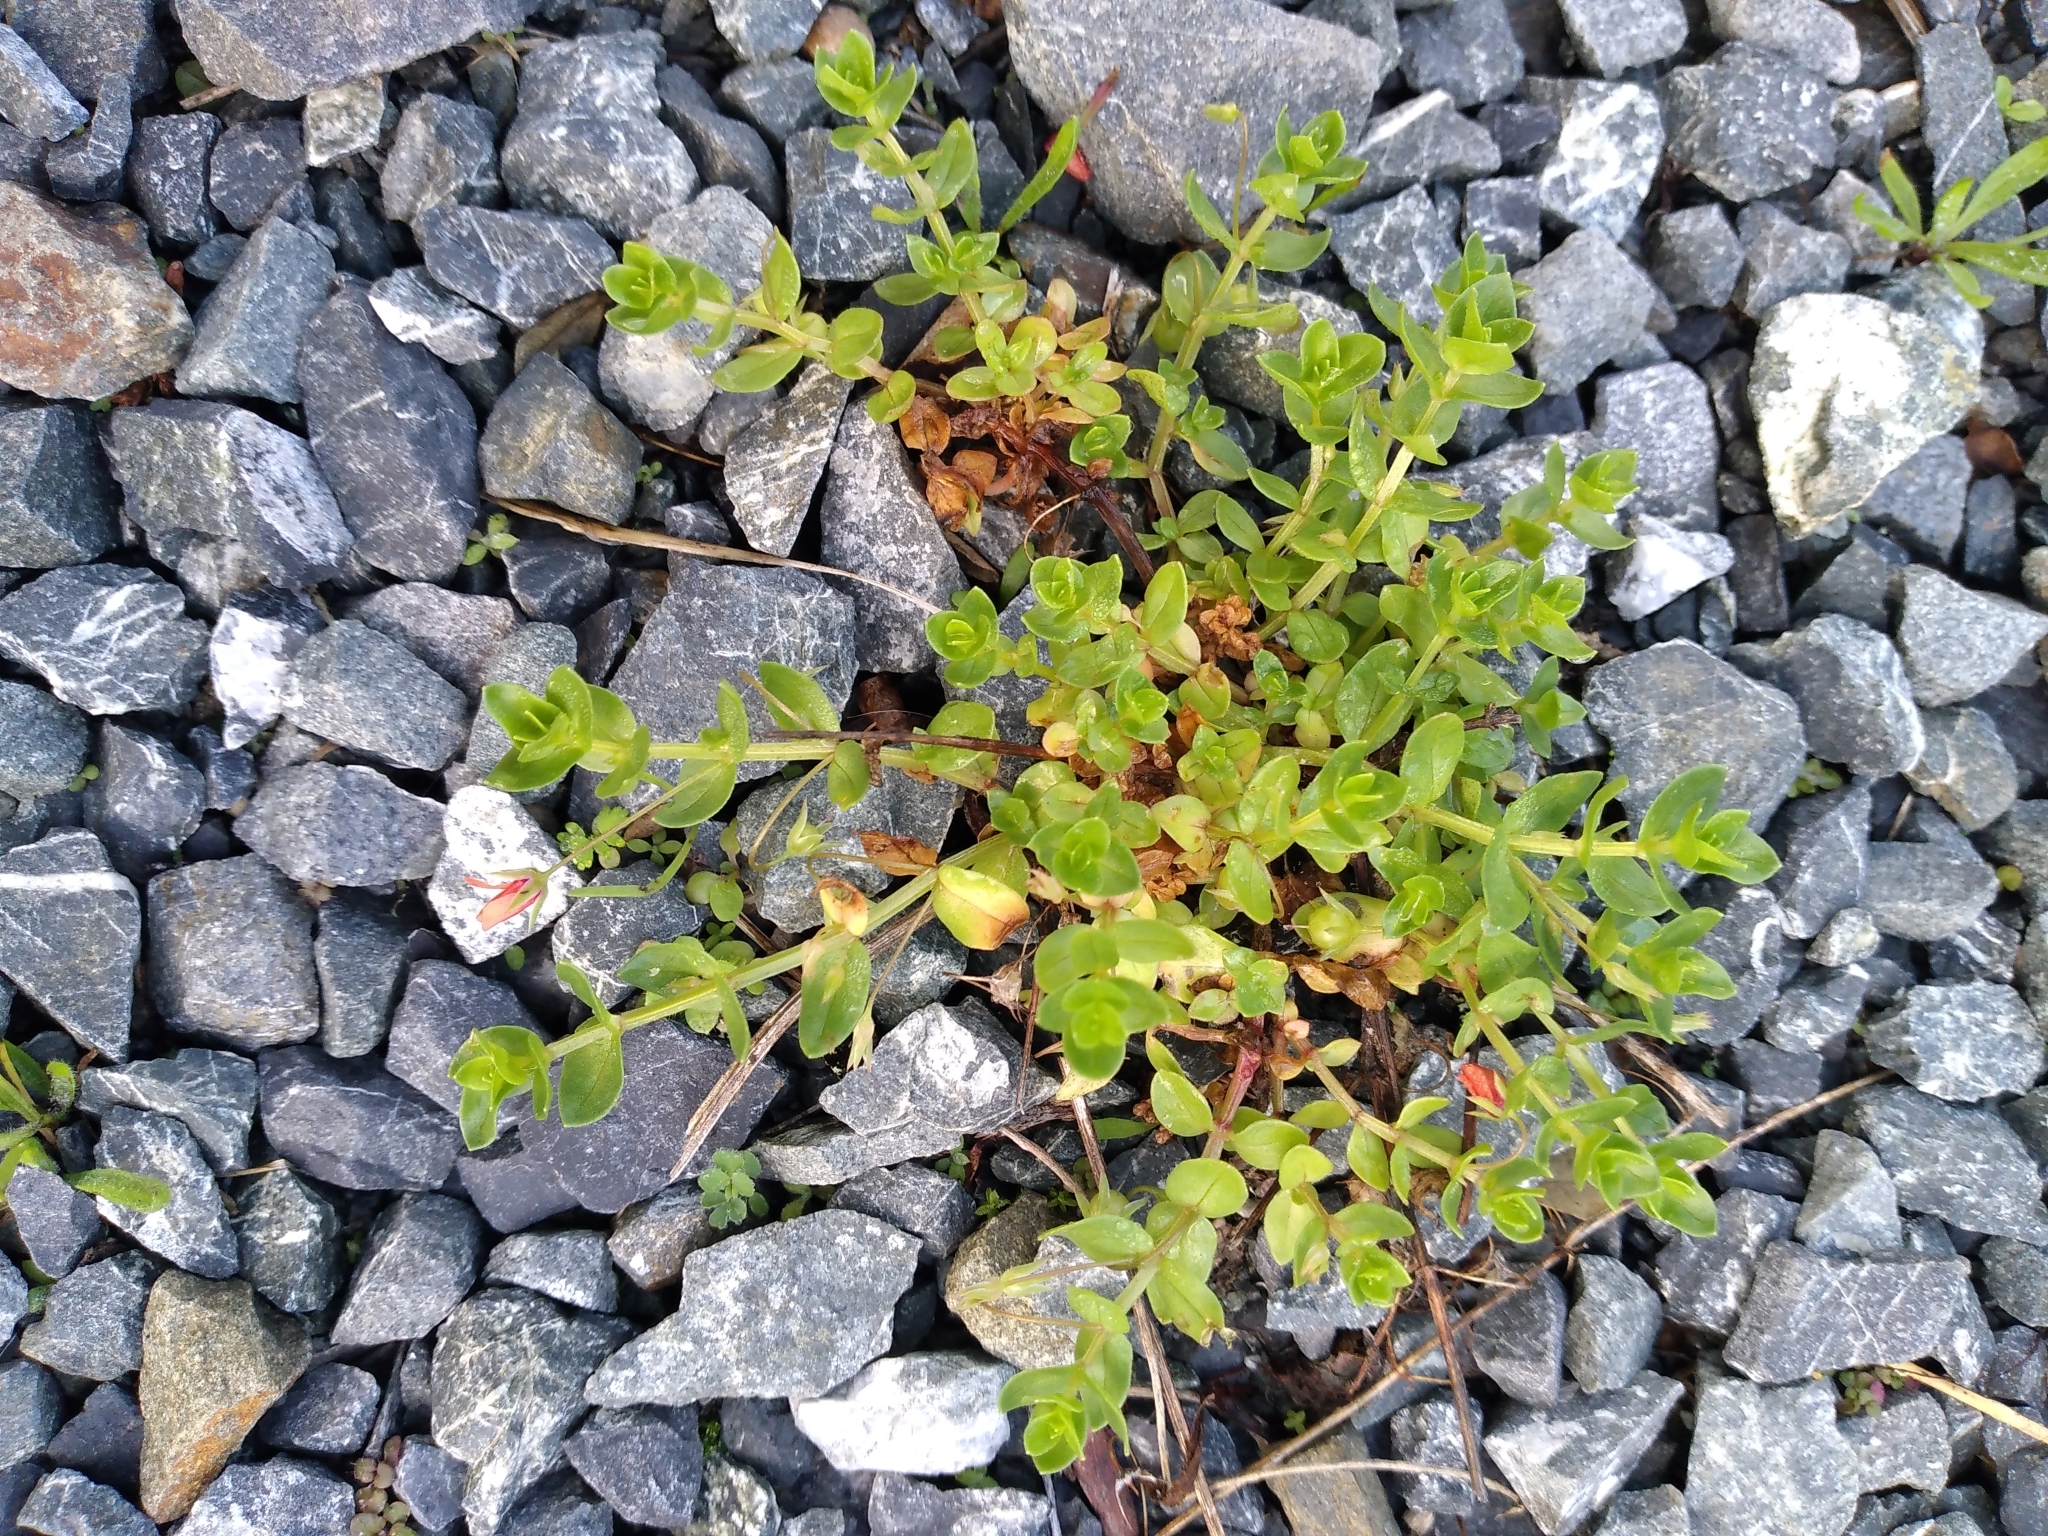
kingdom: Plantae
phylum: Tracheophyta
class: Magnoliopsida
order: Ericales
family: Primulaceae
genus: Lysimachia
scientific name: Lysimachia arvensis
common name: Scarlet pimpernel
